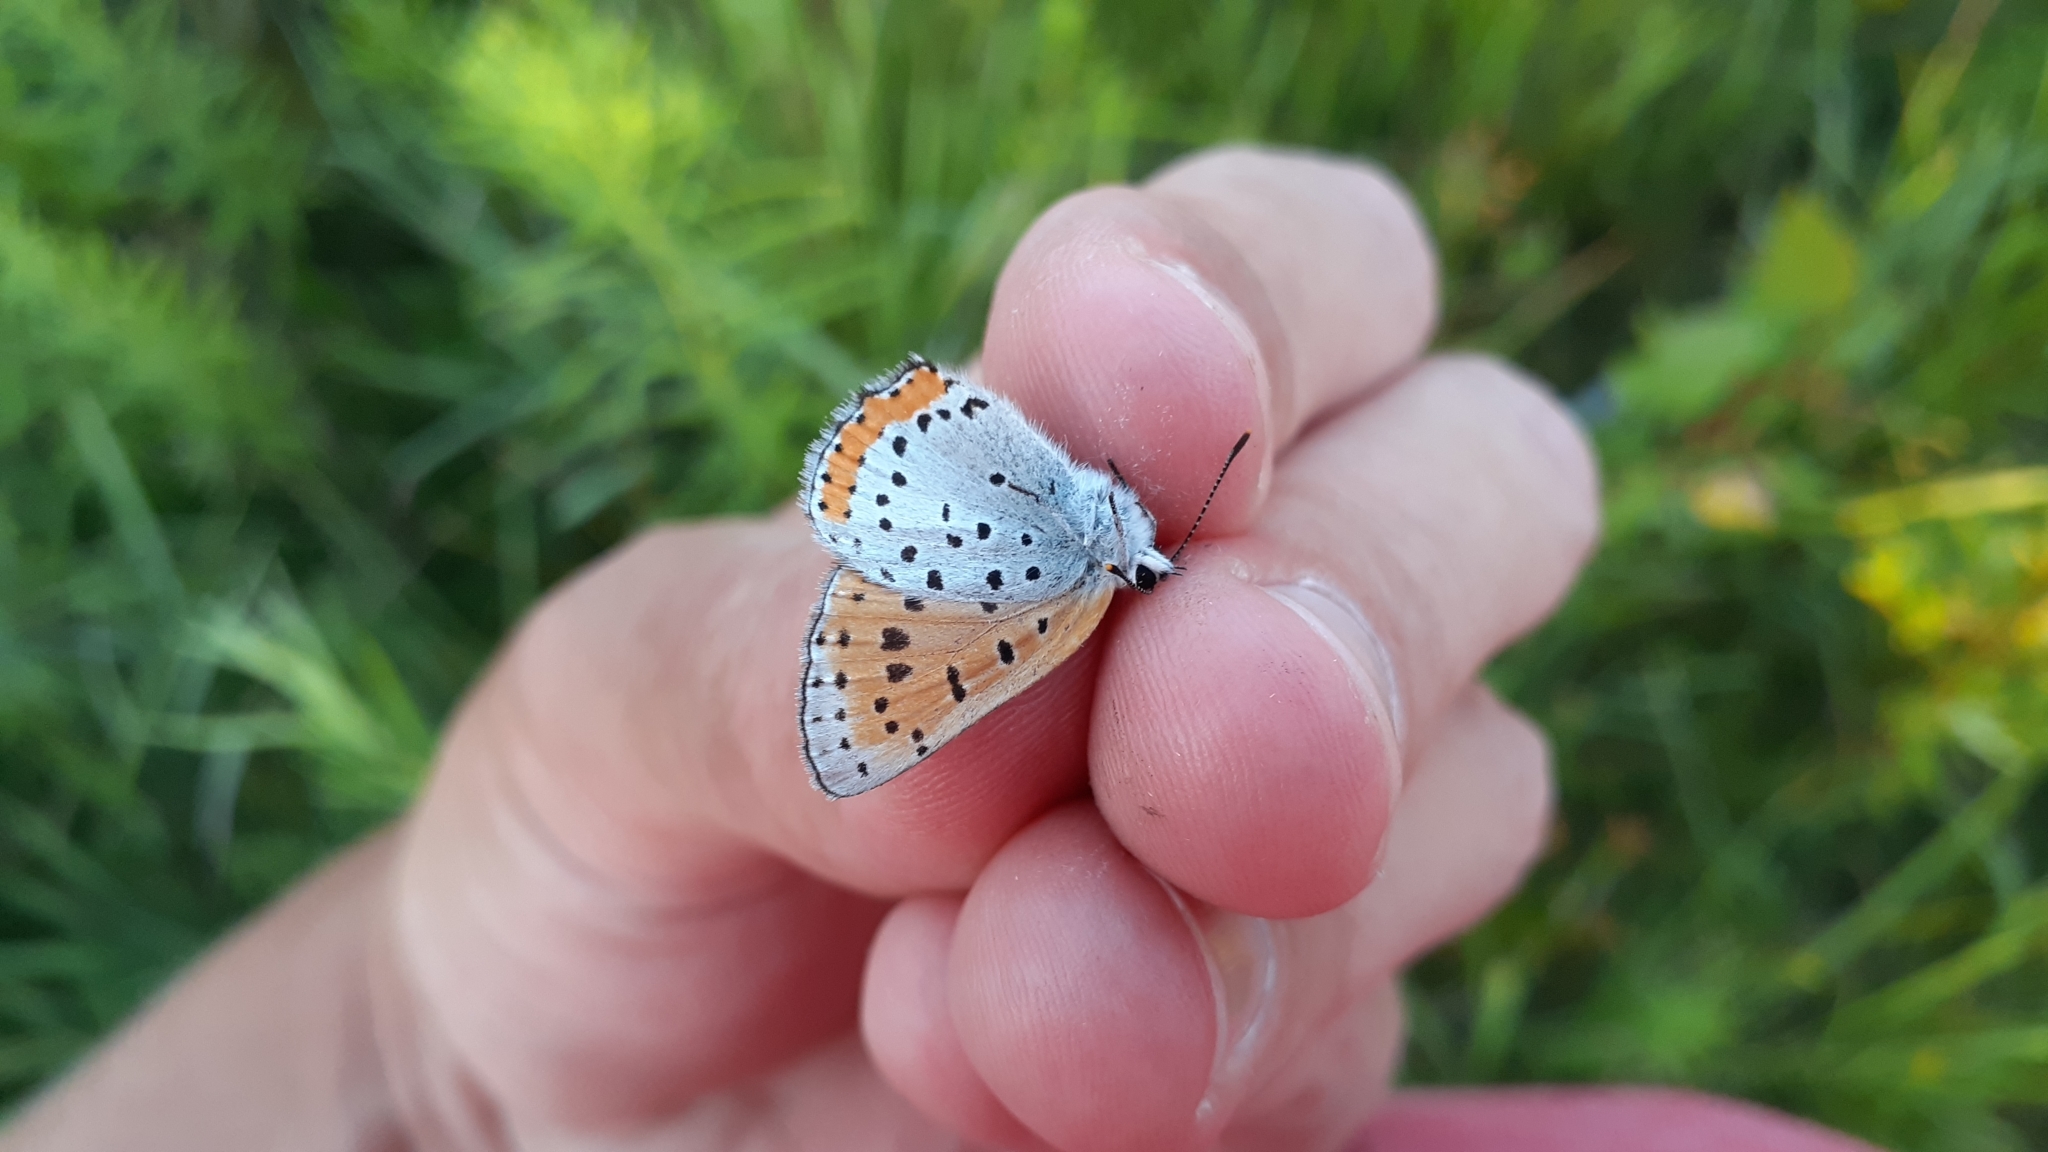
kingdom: Animalia
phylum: Arthropoda
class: Insecta
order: Lepidoptera
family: Lycaenidae
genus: Tharsalea
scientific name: Tharsalea hyllus
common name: Bronze copper
